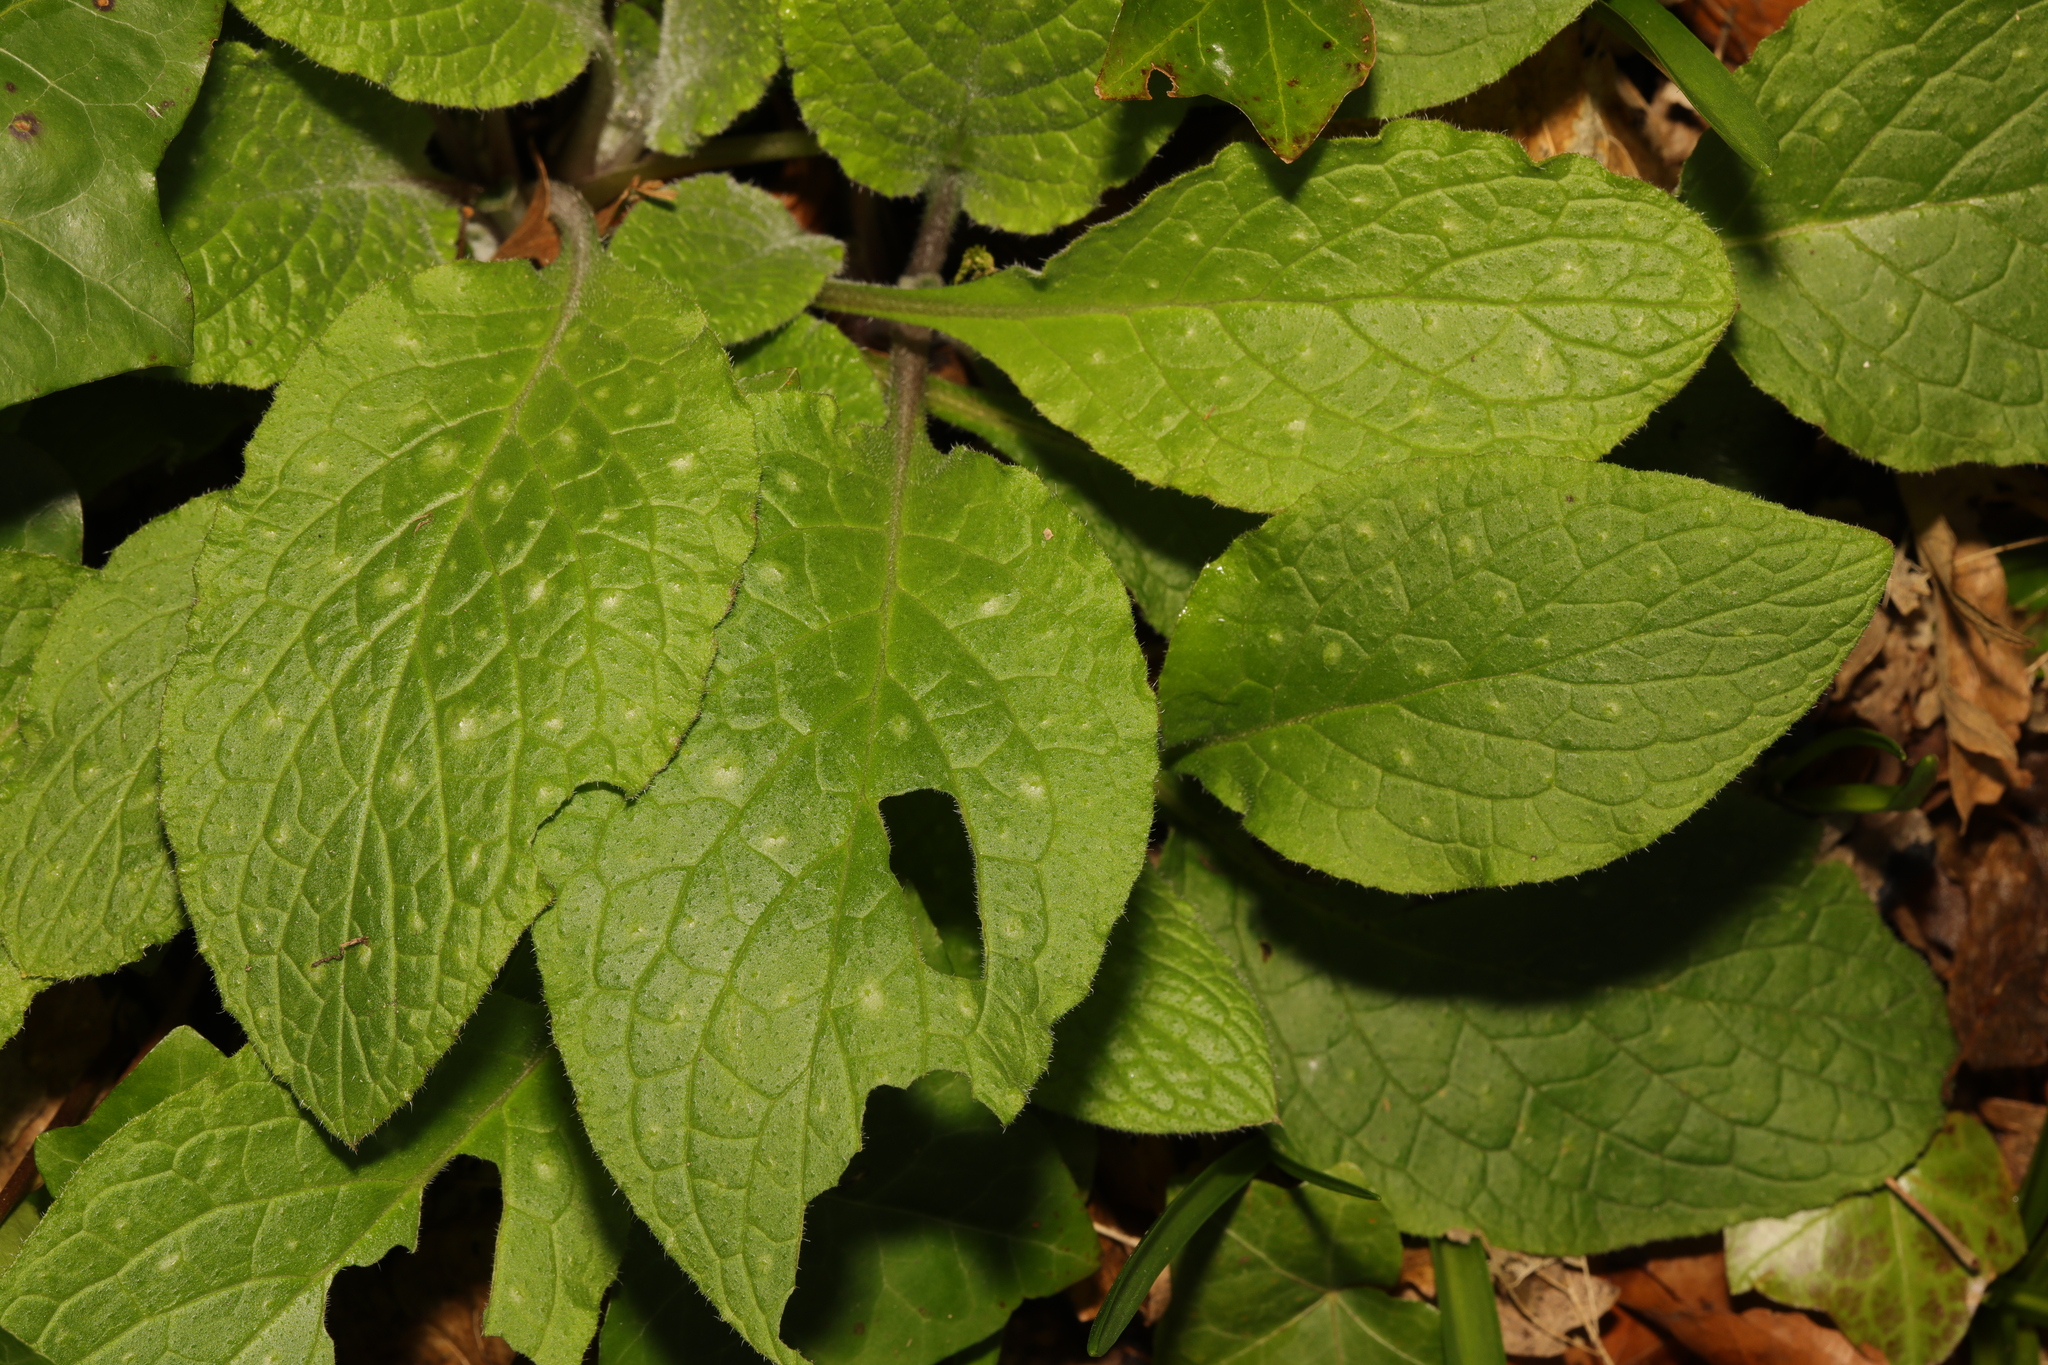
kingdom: Plantae
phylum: Tracheophyta
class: Magnoliopsida
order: Boraginales
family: Boraginaceae
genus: Pentaglottis
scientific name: Pentaglottis sempervirens
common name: Green alkanet
